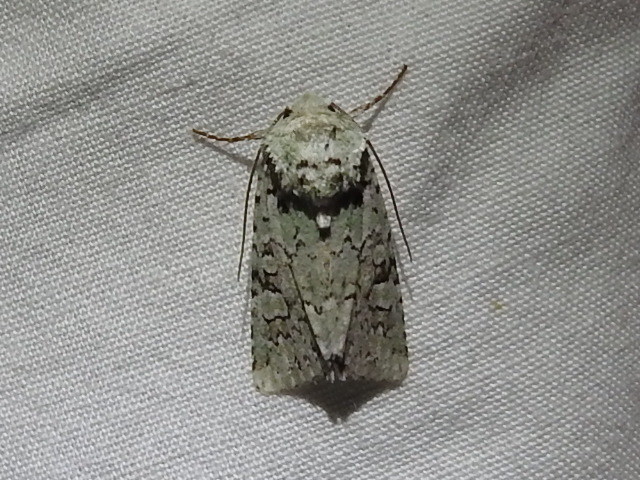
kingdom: Animalia
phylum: Arthropoda
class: Insecta
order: Lepidoptera
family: Noctuidae
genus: Lacinipolia
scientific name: Lacinipolia laudabilis
